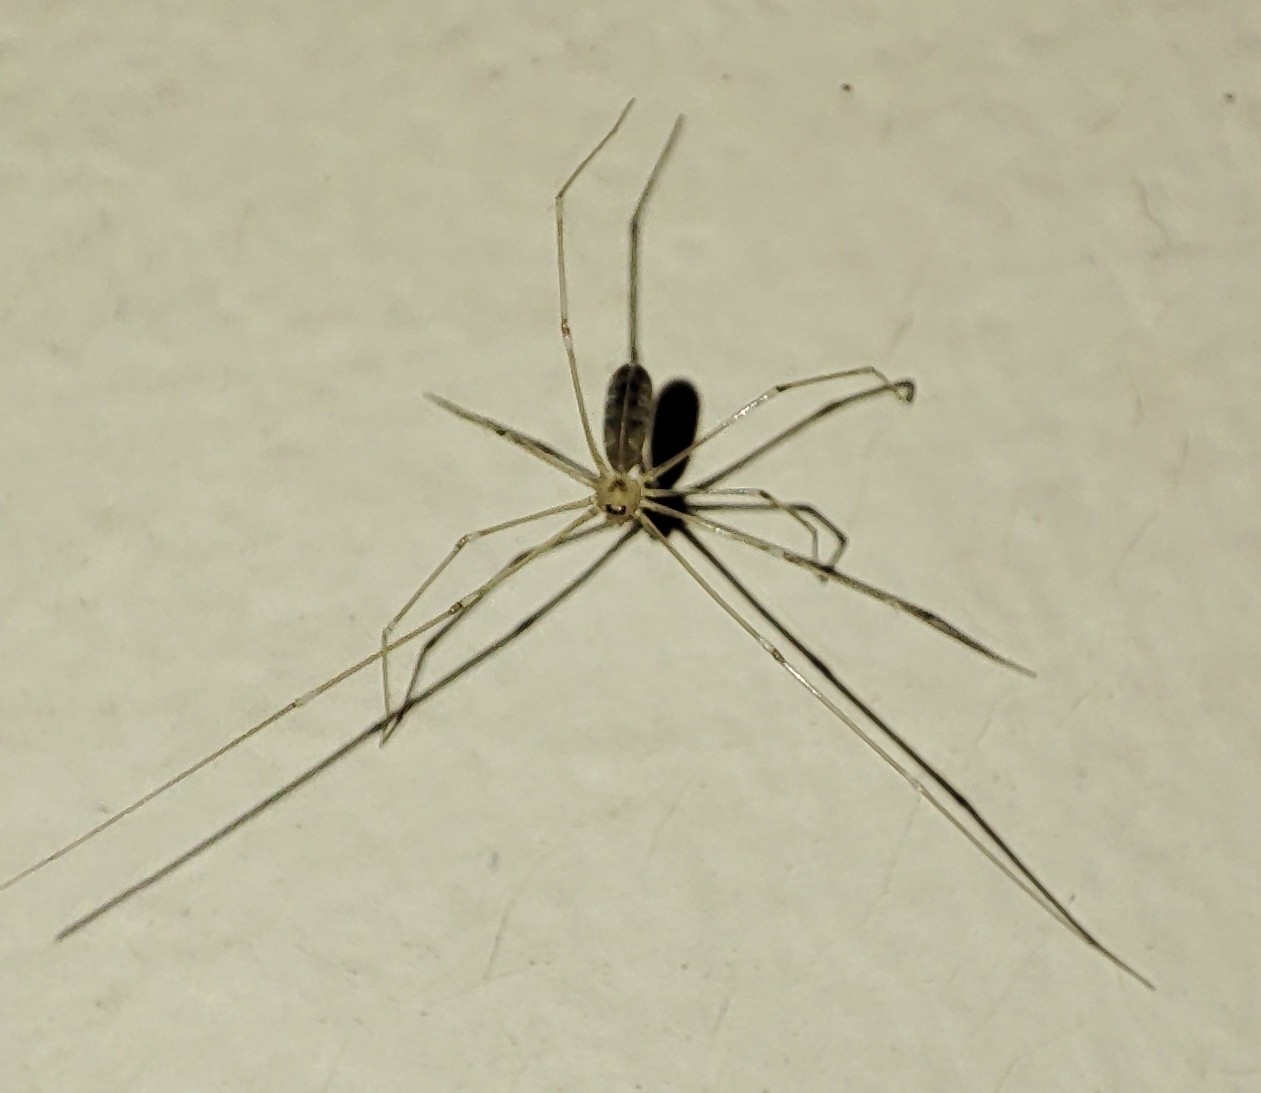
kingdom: Animalia
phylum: Arthropoda
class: Arachnida
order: Araneae
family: Pholcidae
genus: Pholcus
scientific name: Pholcus phalangioides
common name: Longbodied cellar spider
